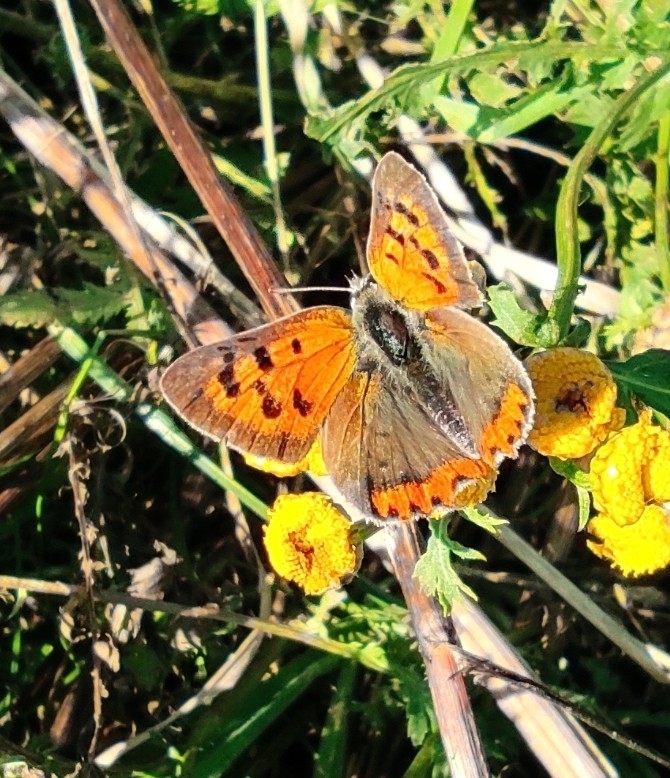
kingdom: Animalia
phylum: Arthropoda
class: Insecta
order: Lepidoptera
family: Lycaenidae
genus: Lycaena
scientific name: Lycaena phlaeas
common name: Small copper
